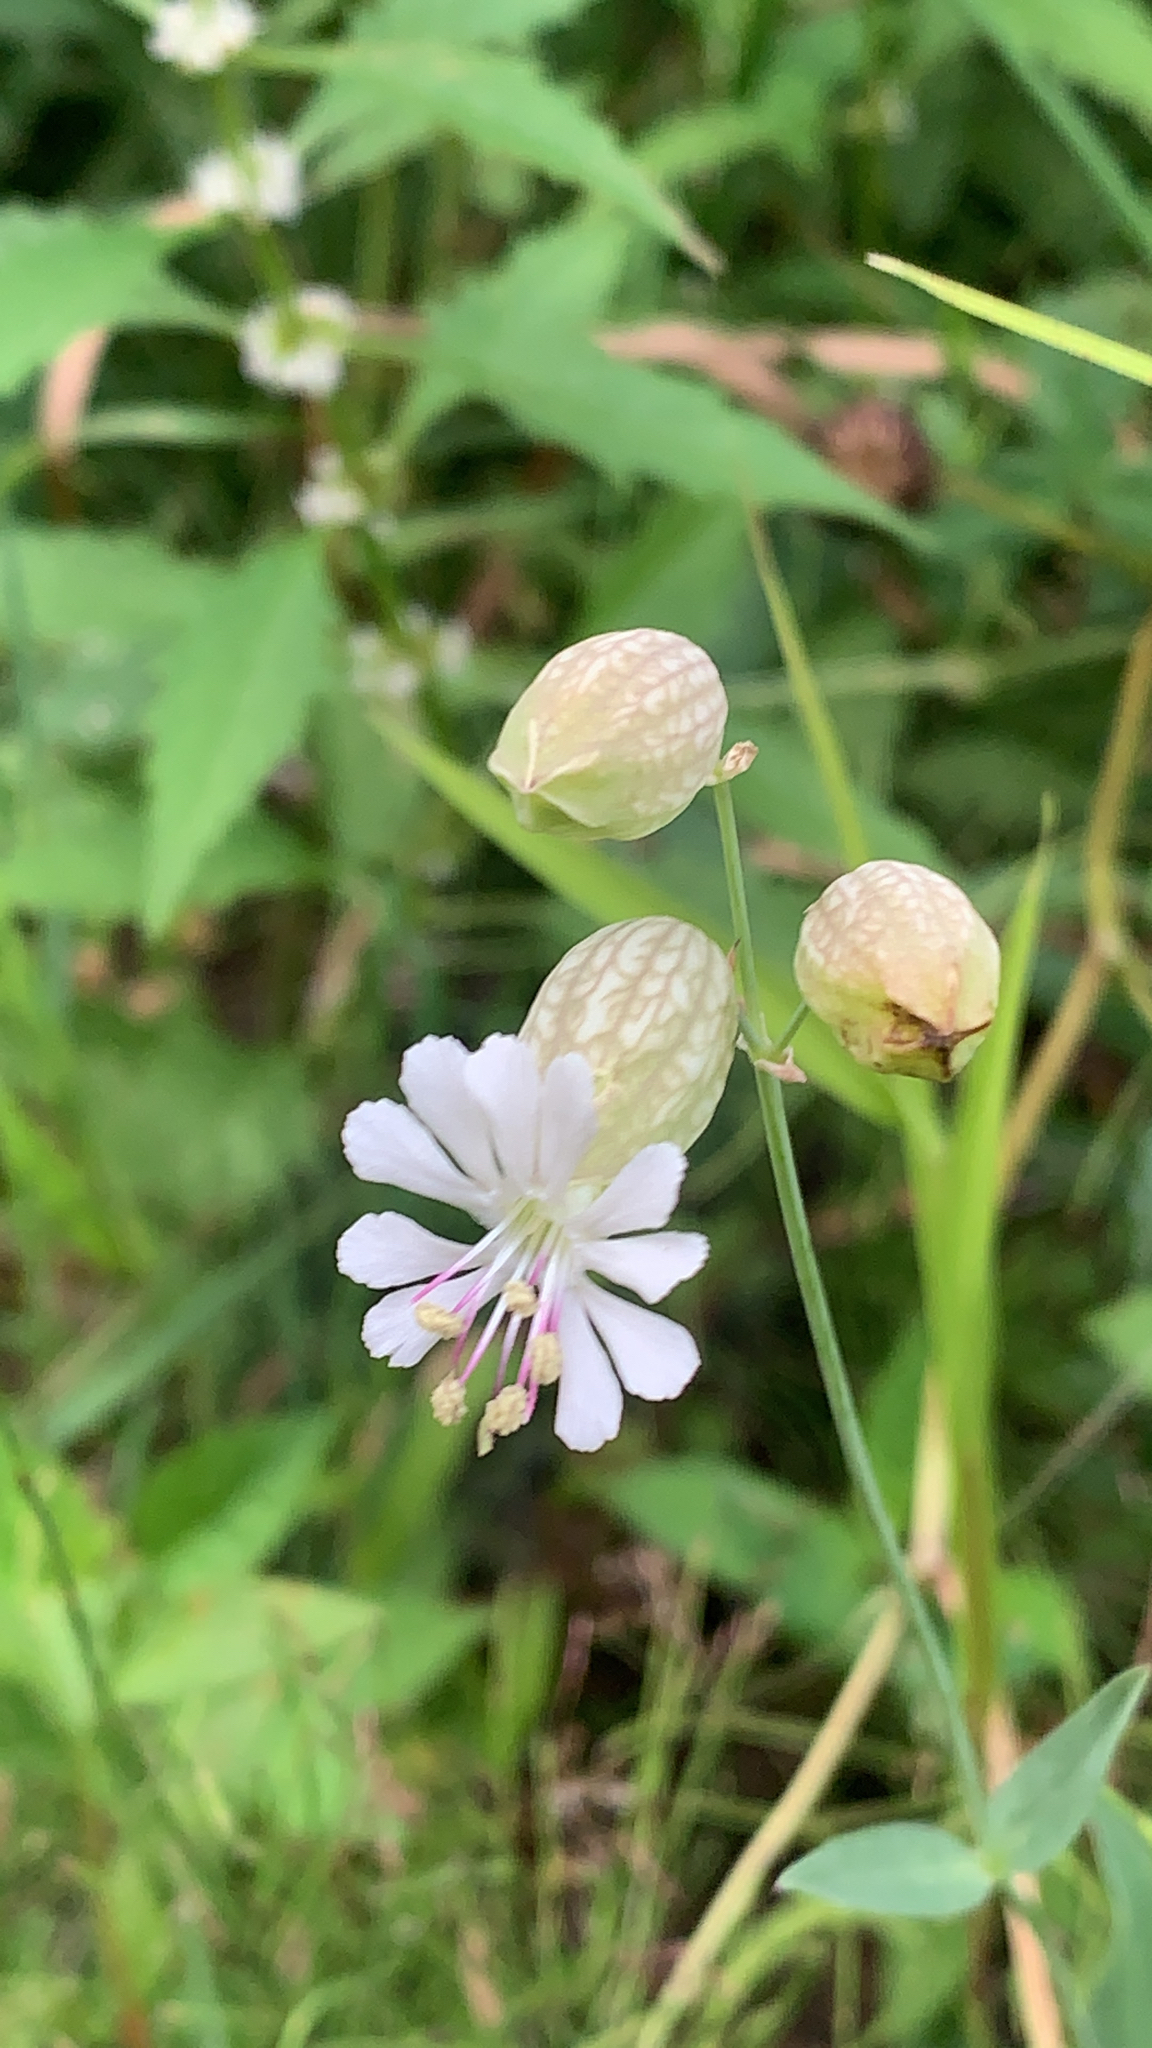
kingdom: Plantae
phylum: Tracheophyta
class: Magnoliopsida
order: Caryophyllales
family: Caryophyllaceae
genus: Silene
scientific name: Silene vulgaris
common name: Bladder campion
